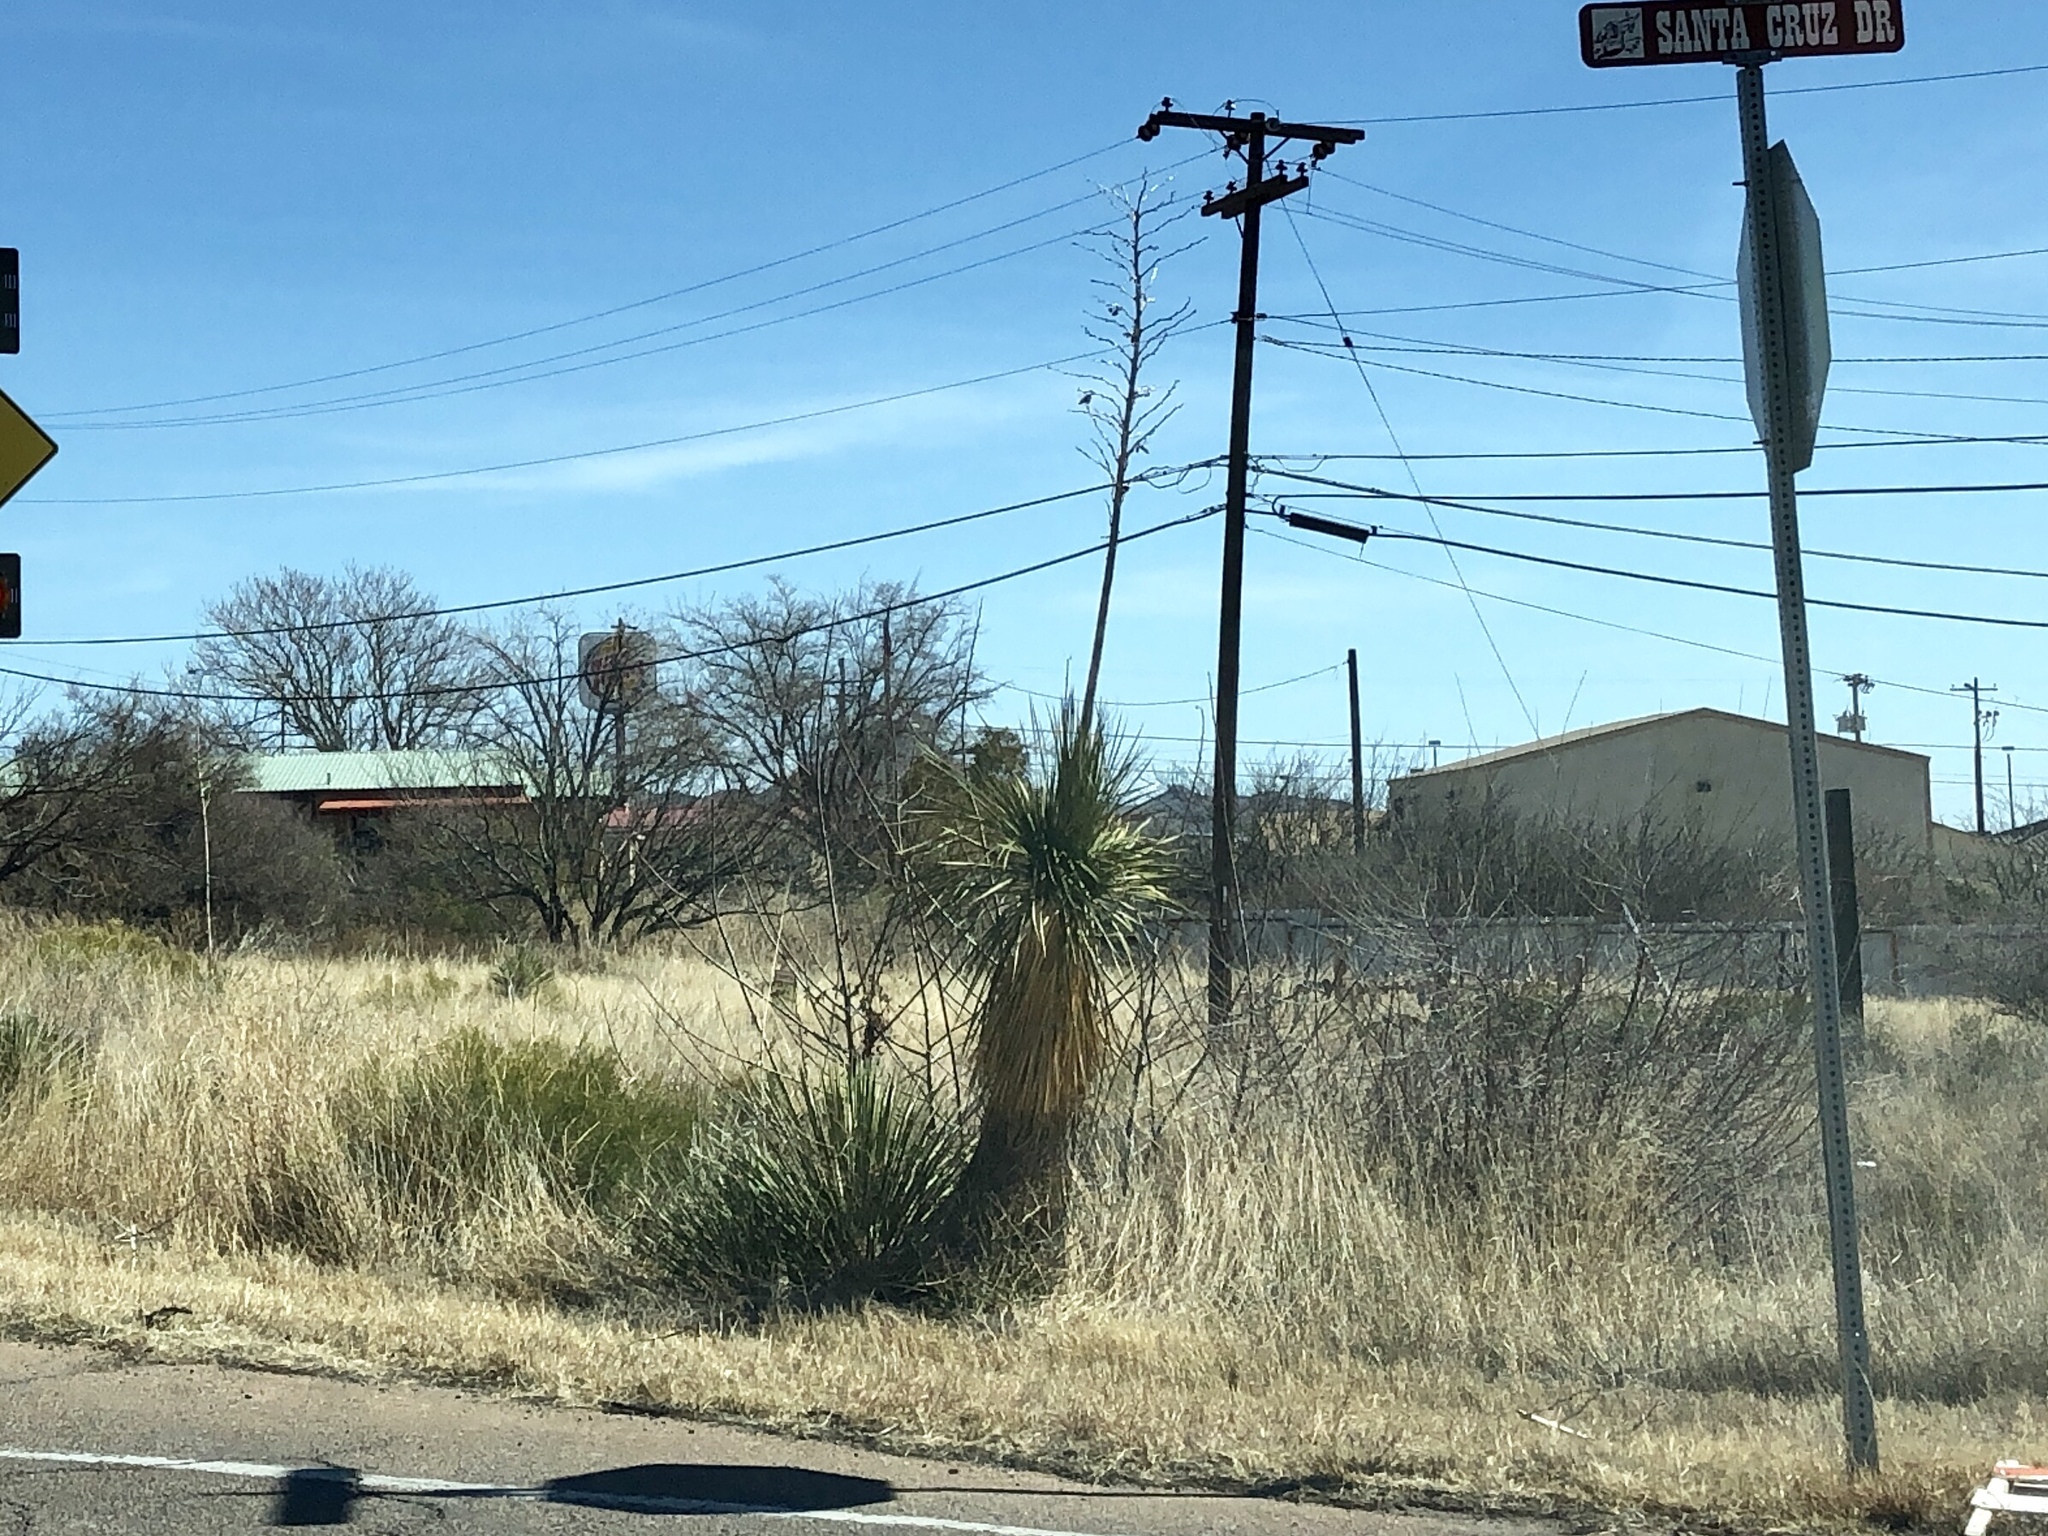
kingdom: Plantae
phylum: Tracheophyta
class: Liliopsida
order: Asparagales
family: Asparagaceae
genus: Yucca
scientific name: Yucca elata
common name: Palmella
